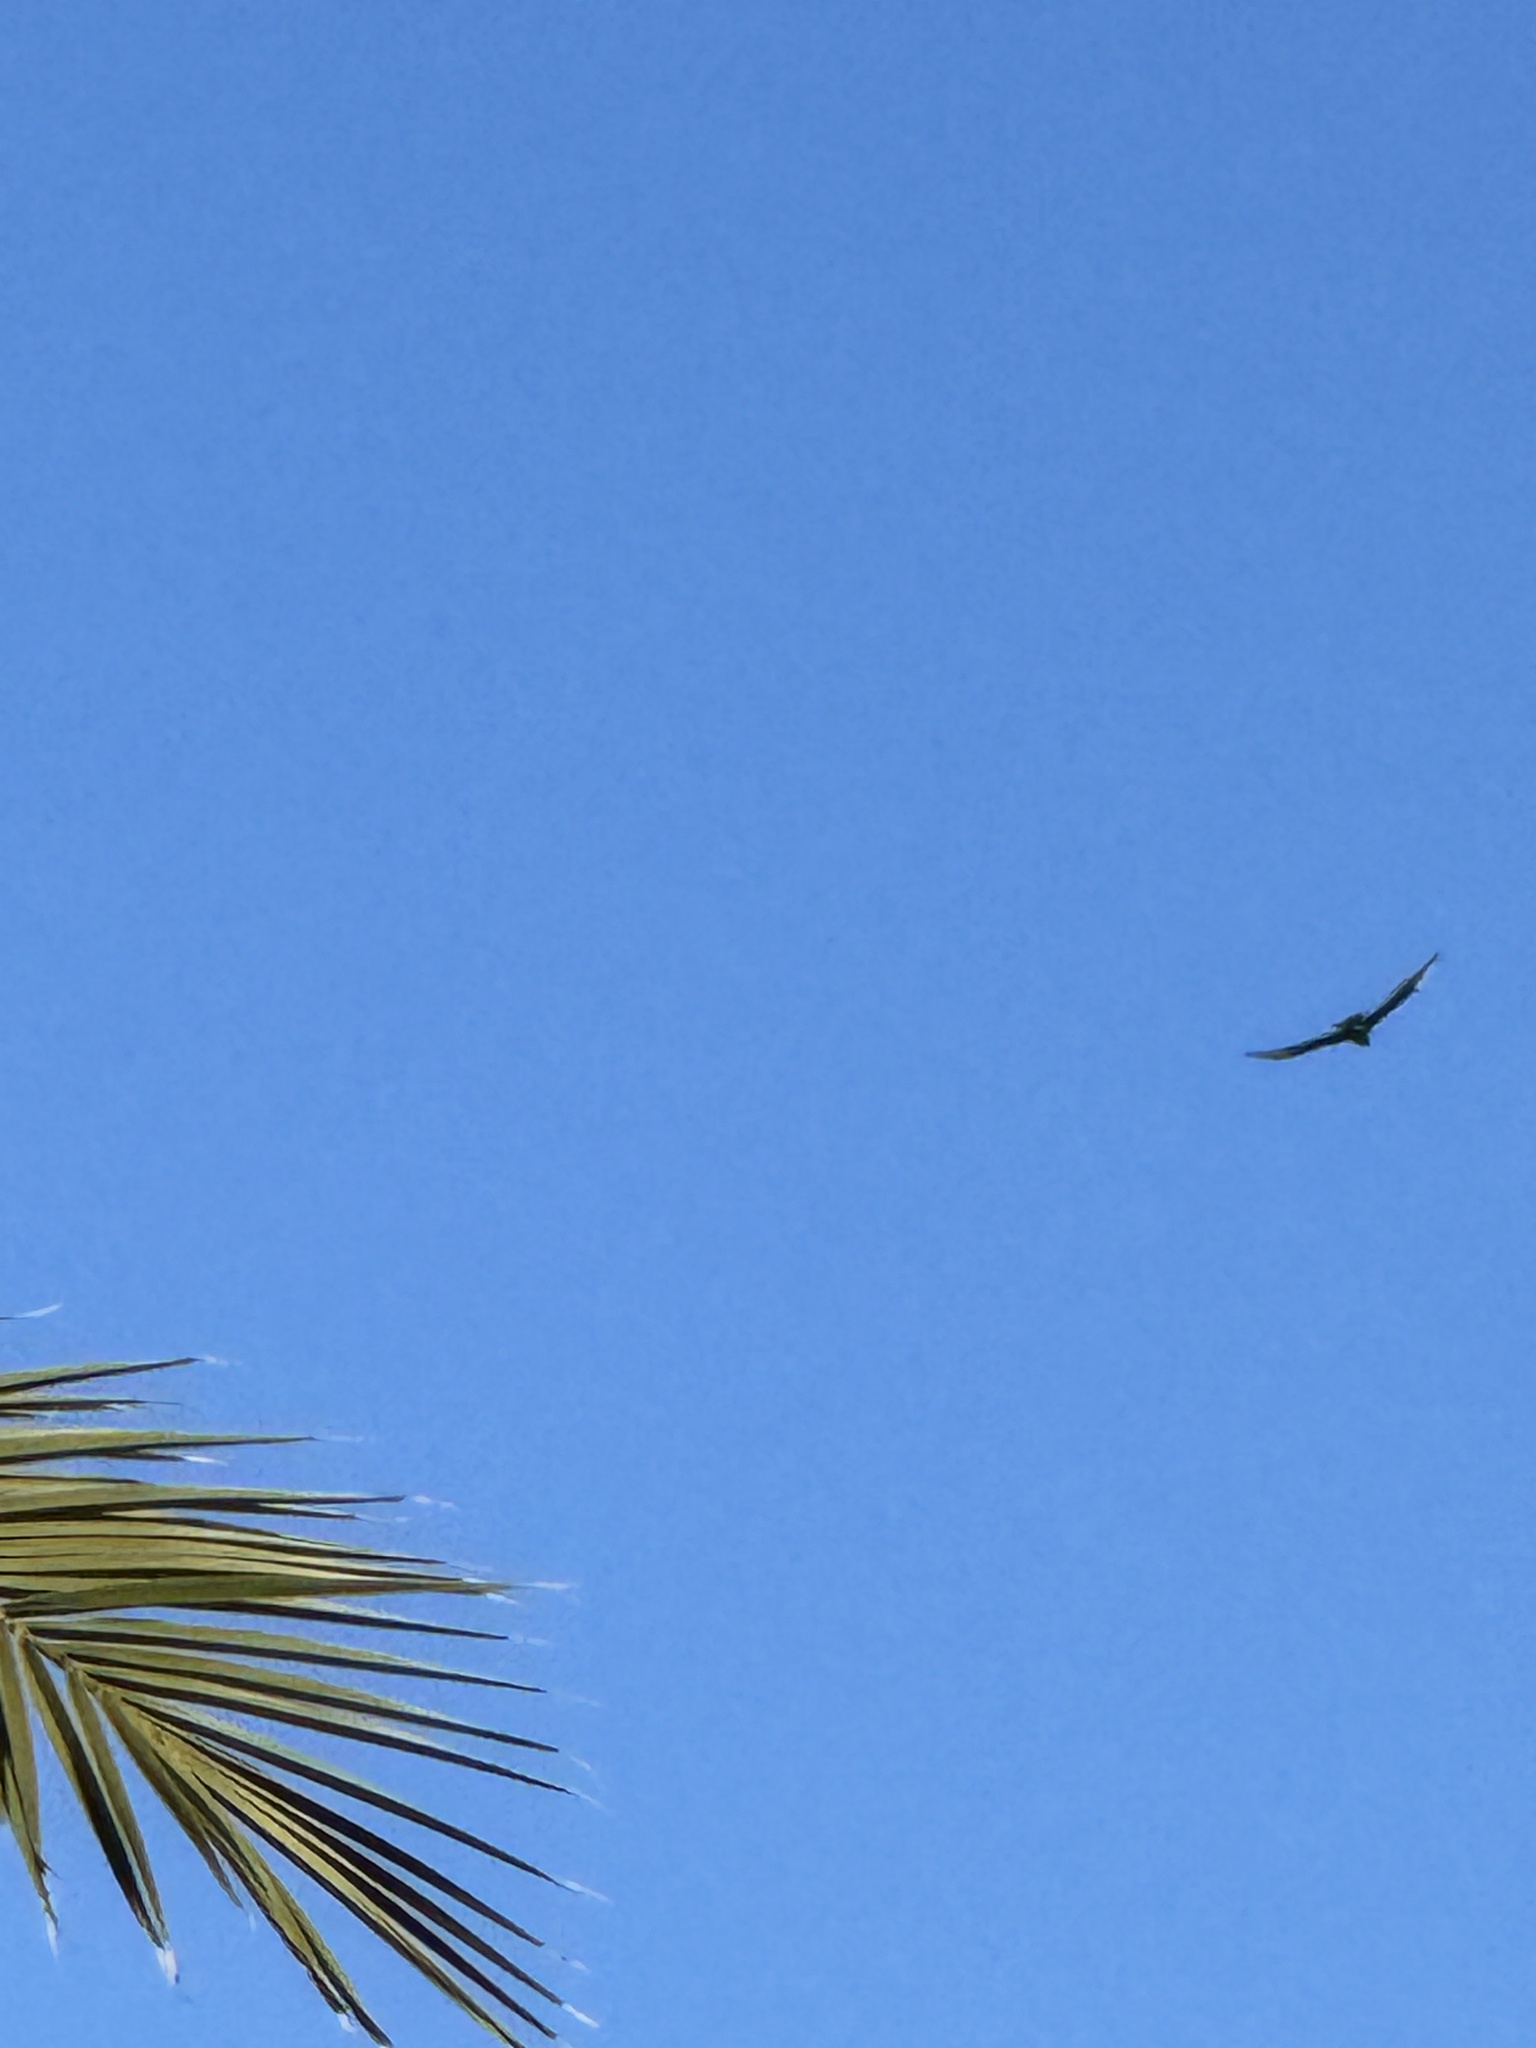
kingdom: Animalia
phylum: Chordata
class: Aves
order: Accipitriformes
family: Cathartidae
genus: Cathartes
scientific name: Cathartes aura
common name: Turkey vulture
